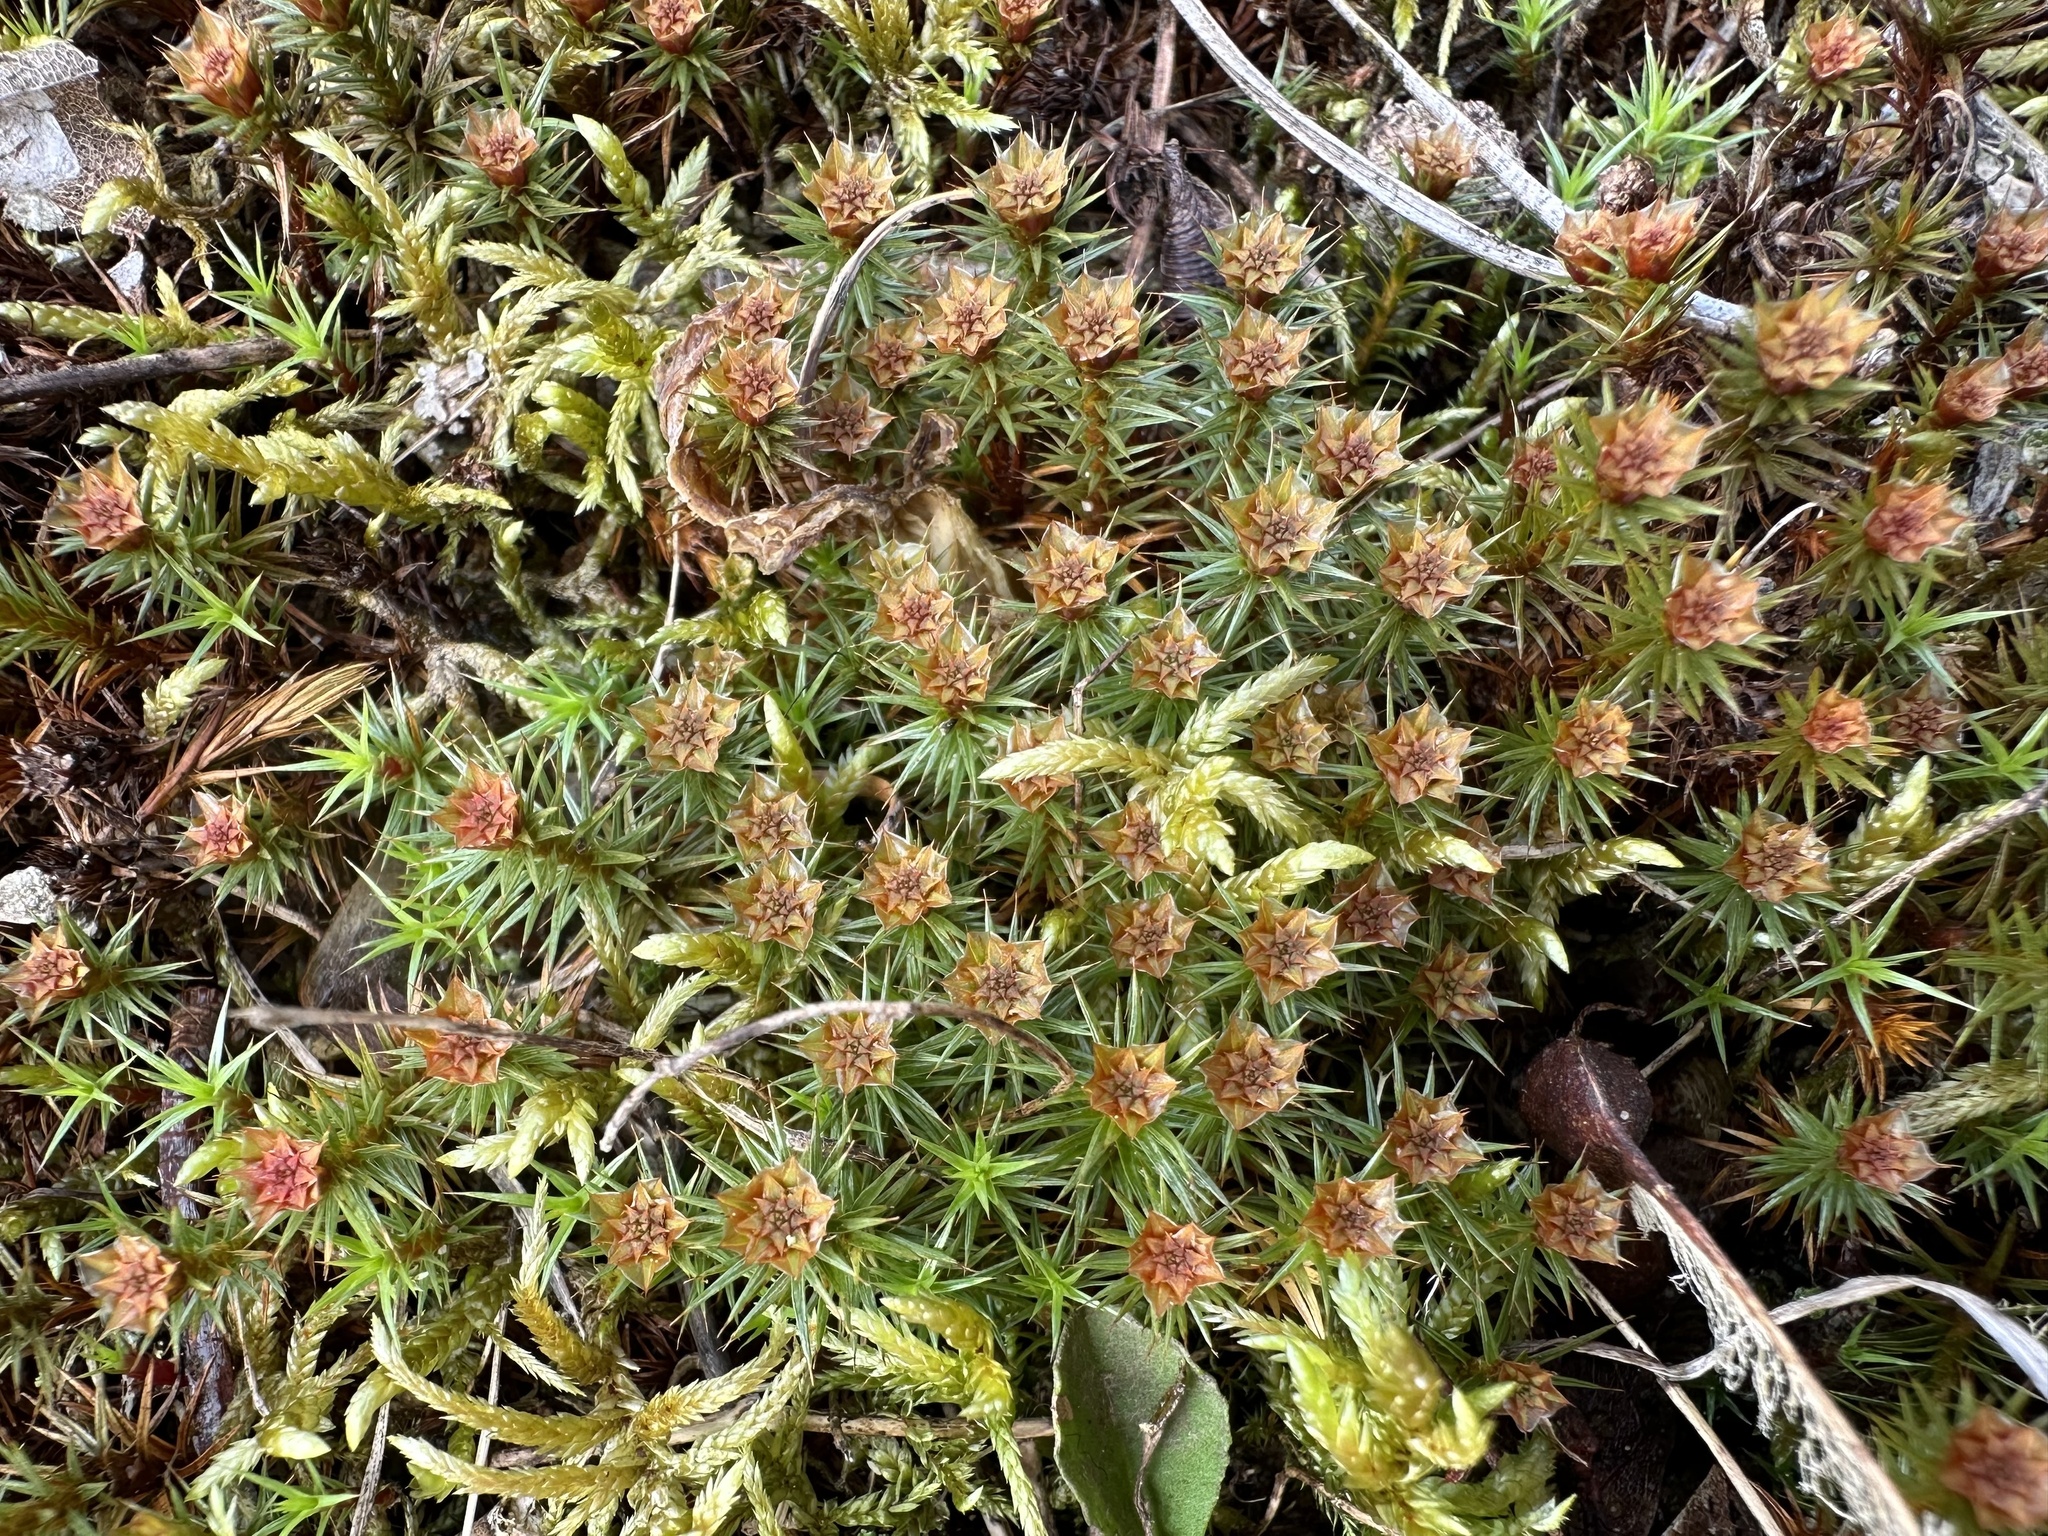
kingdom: Plantae
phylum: Bryophyta
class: Polytrichopsida
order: Polytrichales
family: Polytrichaceae
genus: Polytrichum
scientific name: Polytrichum juniperinum
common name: Juniper haircap moss
